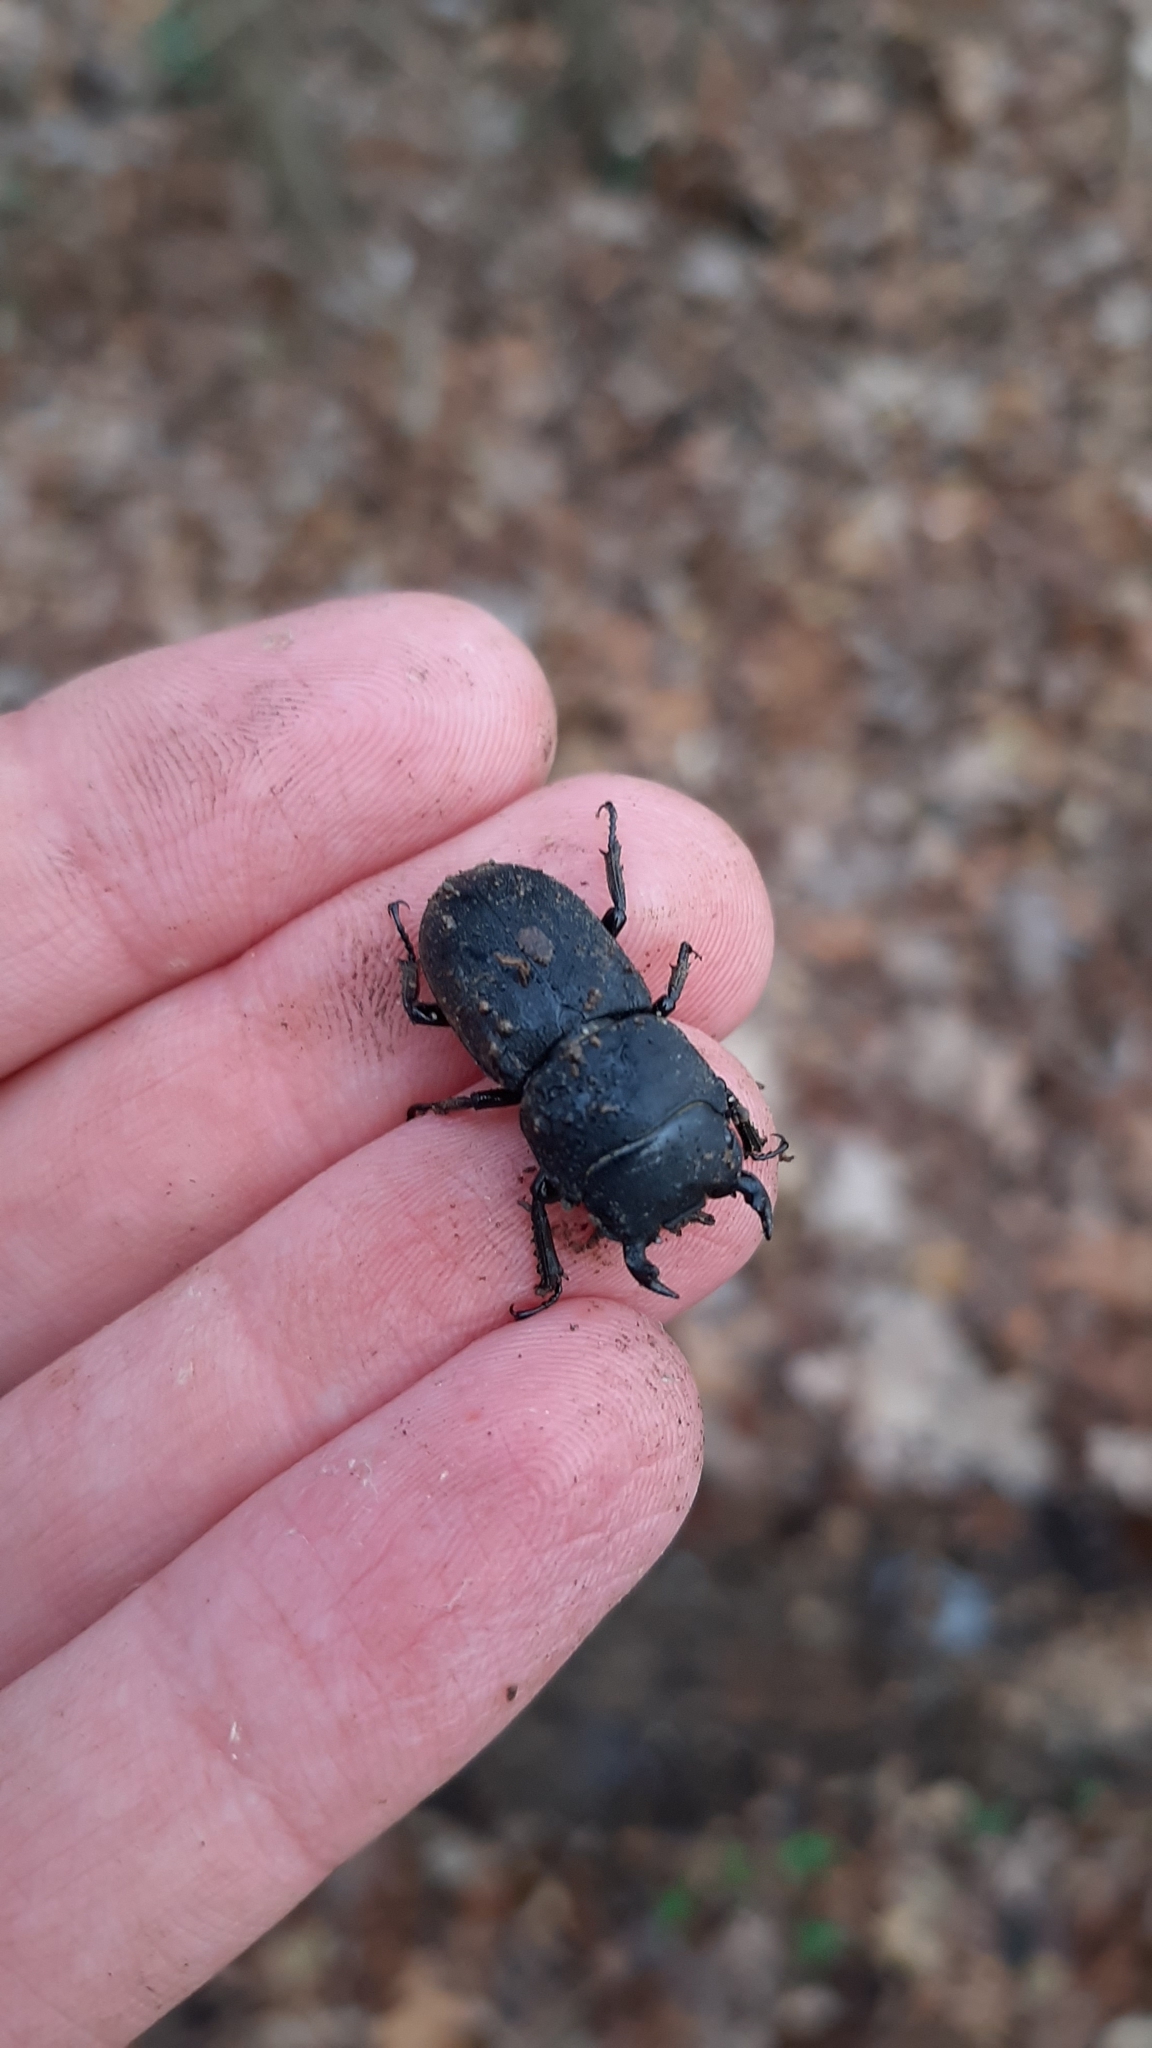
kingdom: Animalia
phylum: Arthropoda
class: Insecta
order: Coleoptera
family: Lucanidae
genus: Dorcus
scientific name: Dorcus parallelipipedus
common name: Lesser stag beetle
